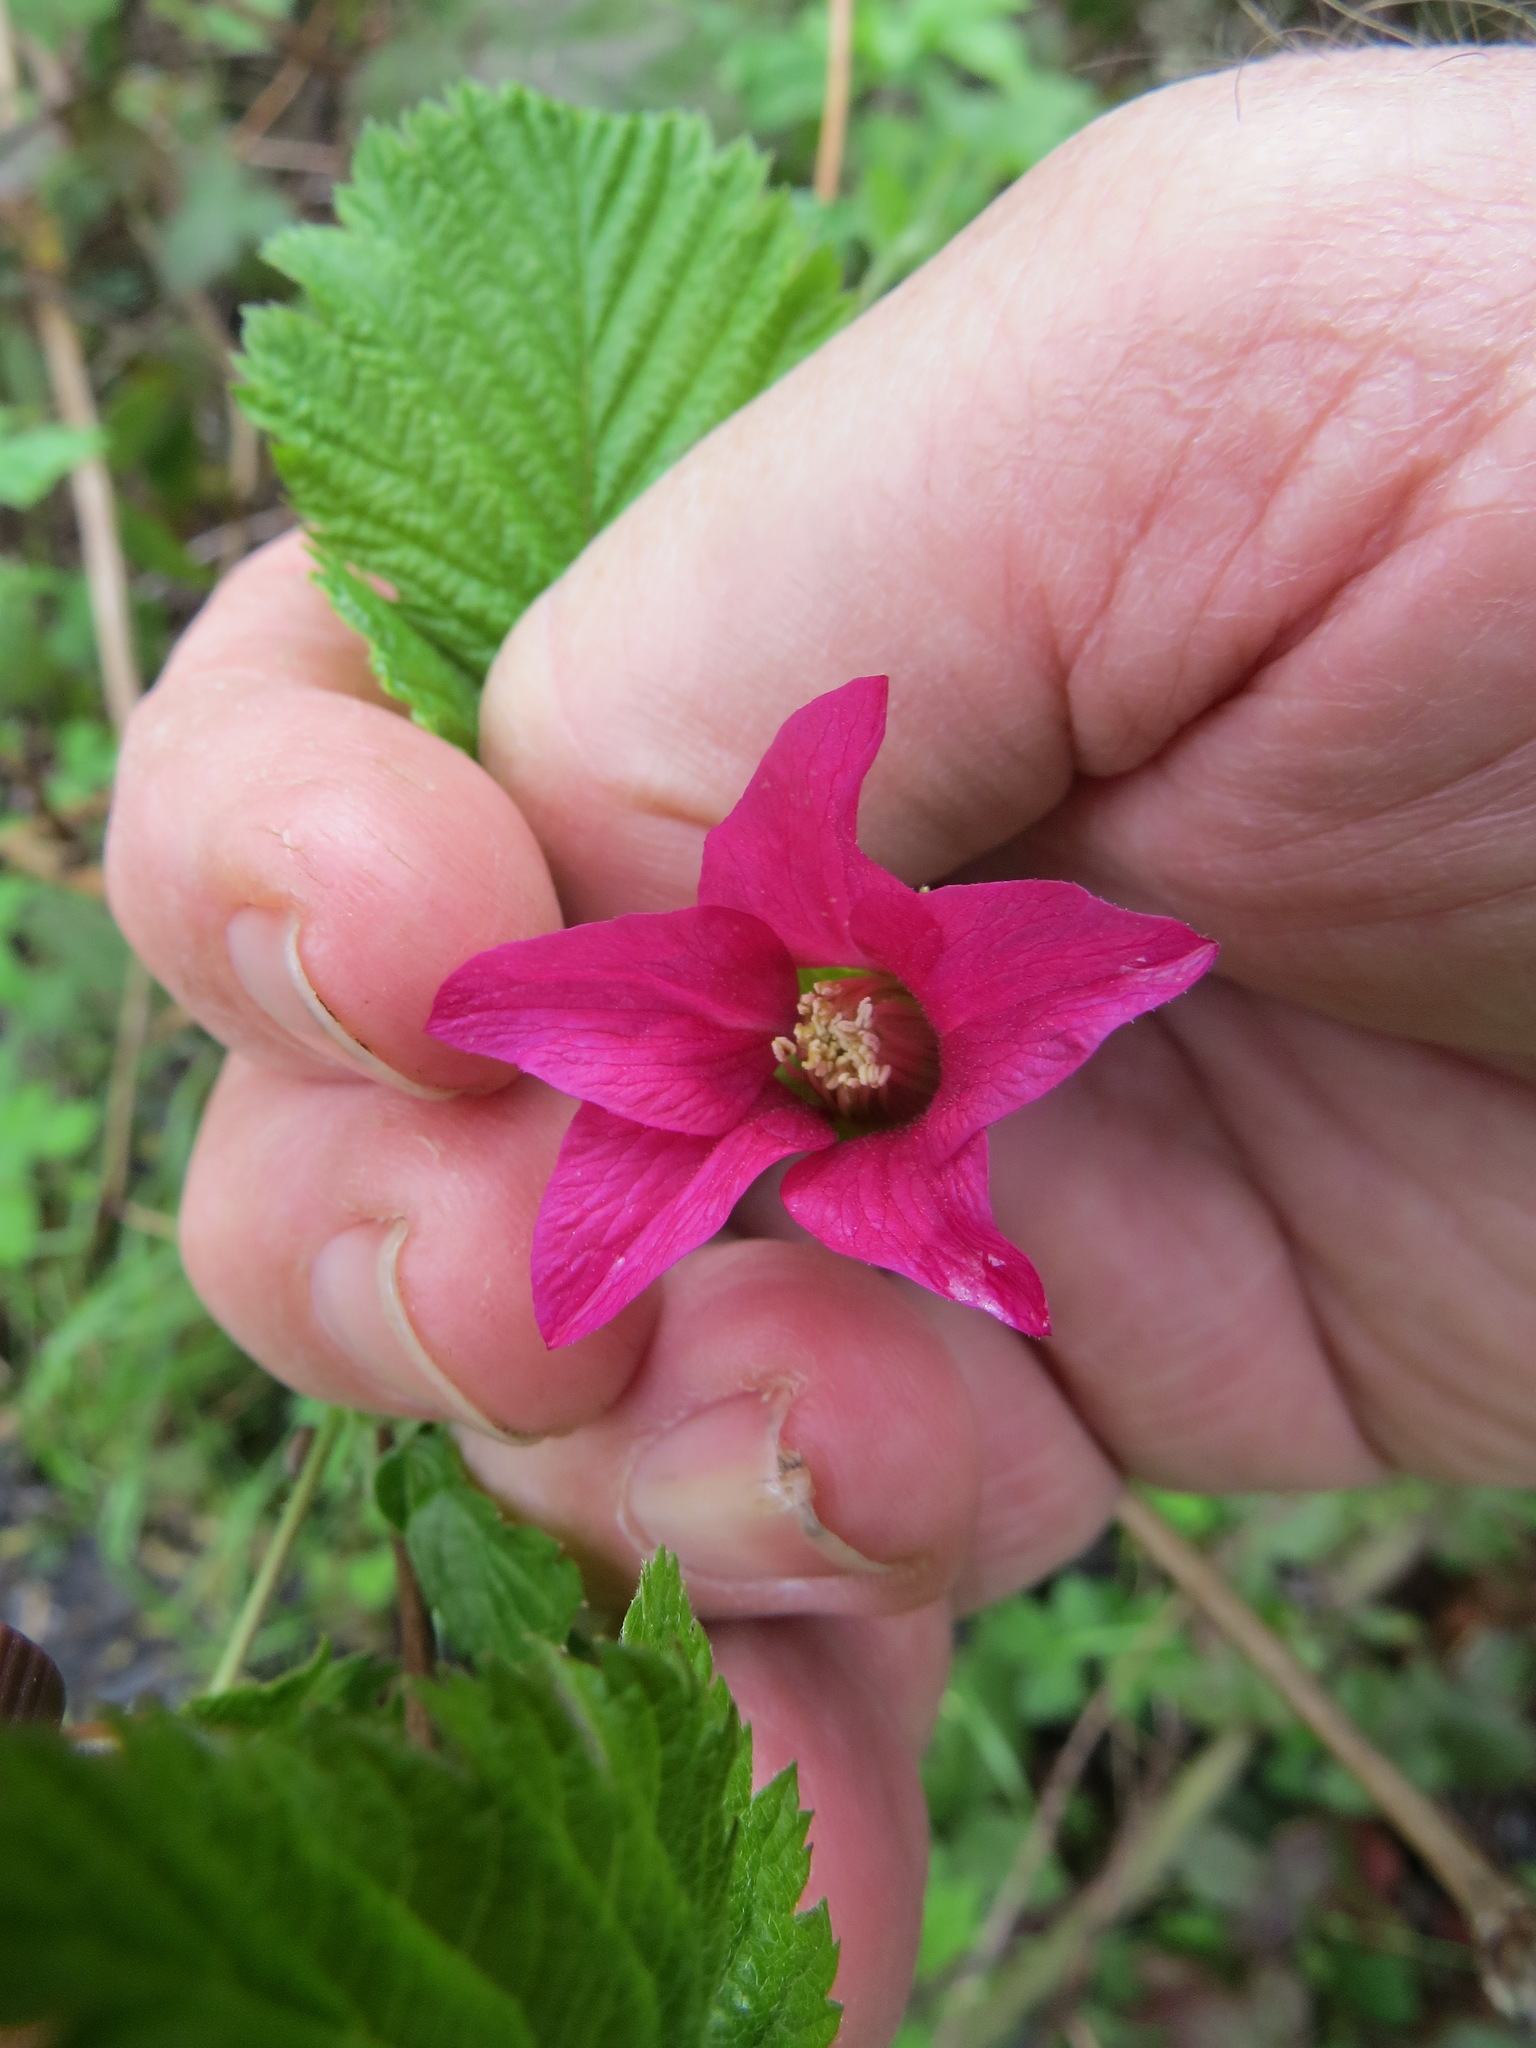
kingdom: Plantae
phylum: Tracheophyta
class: Magnoliopsida
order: Rosales
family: Rosaceae
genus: Rubus
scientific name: Rubus spectabilis
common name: Salmonberry
